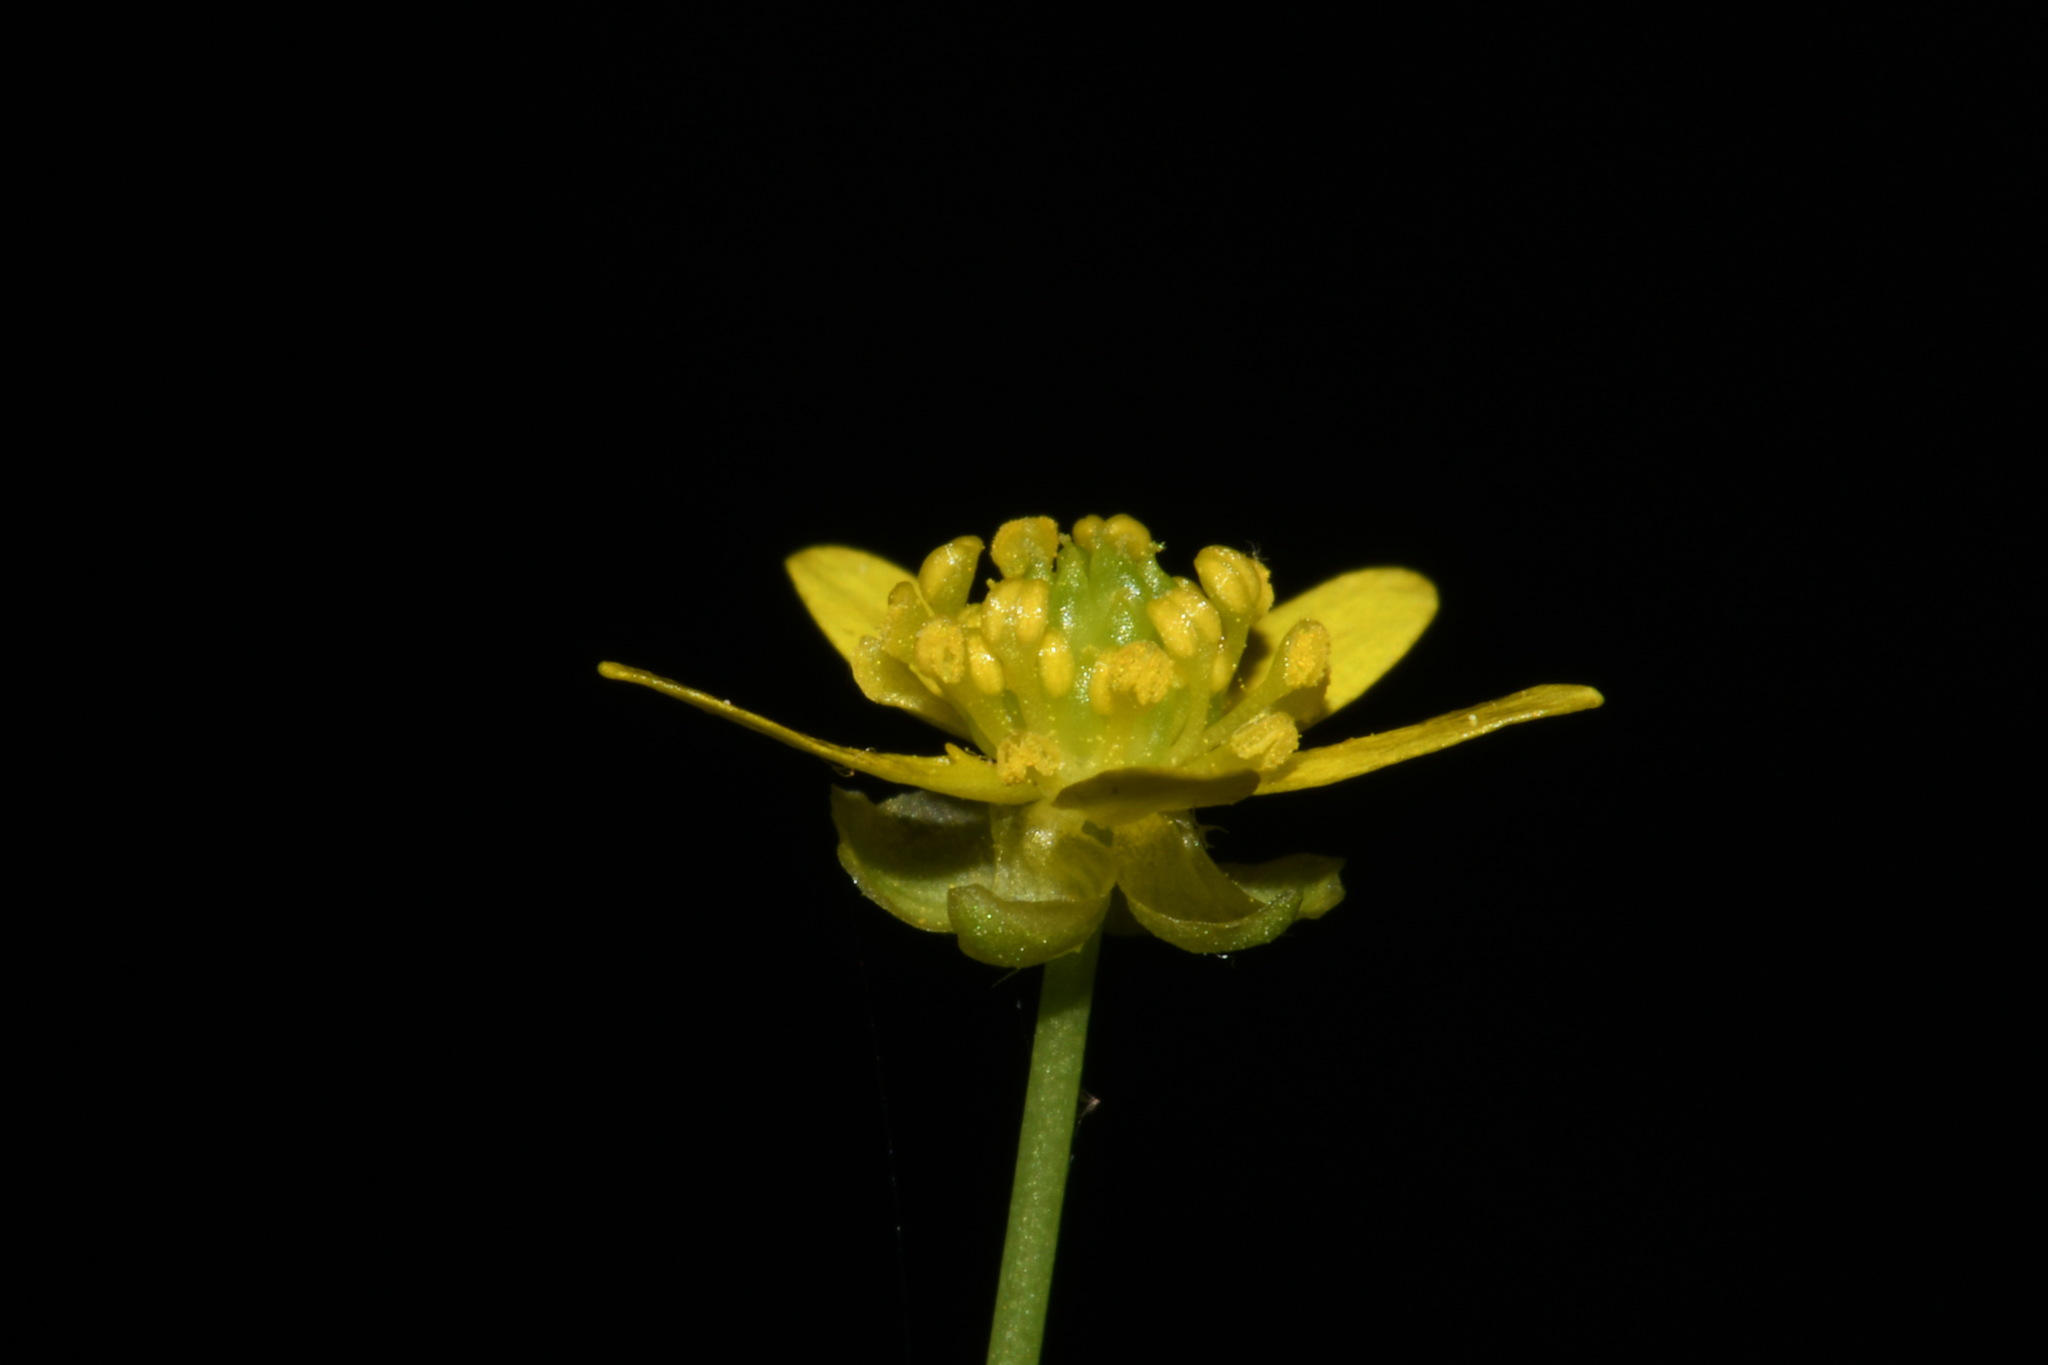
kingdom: Plantae
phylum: Tracheophyta
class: Magnoliopsida
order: Ranunculales
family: Ranunculaceae
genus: Ranunculus
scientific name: Ranunculus harveyi
